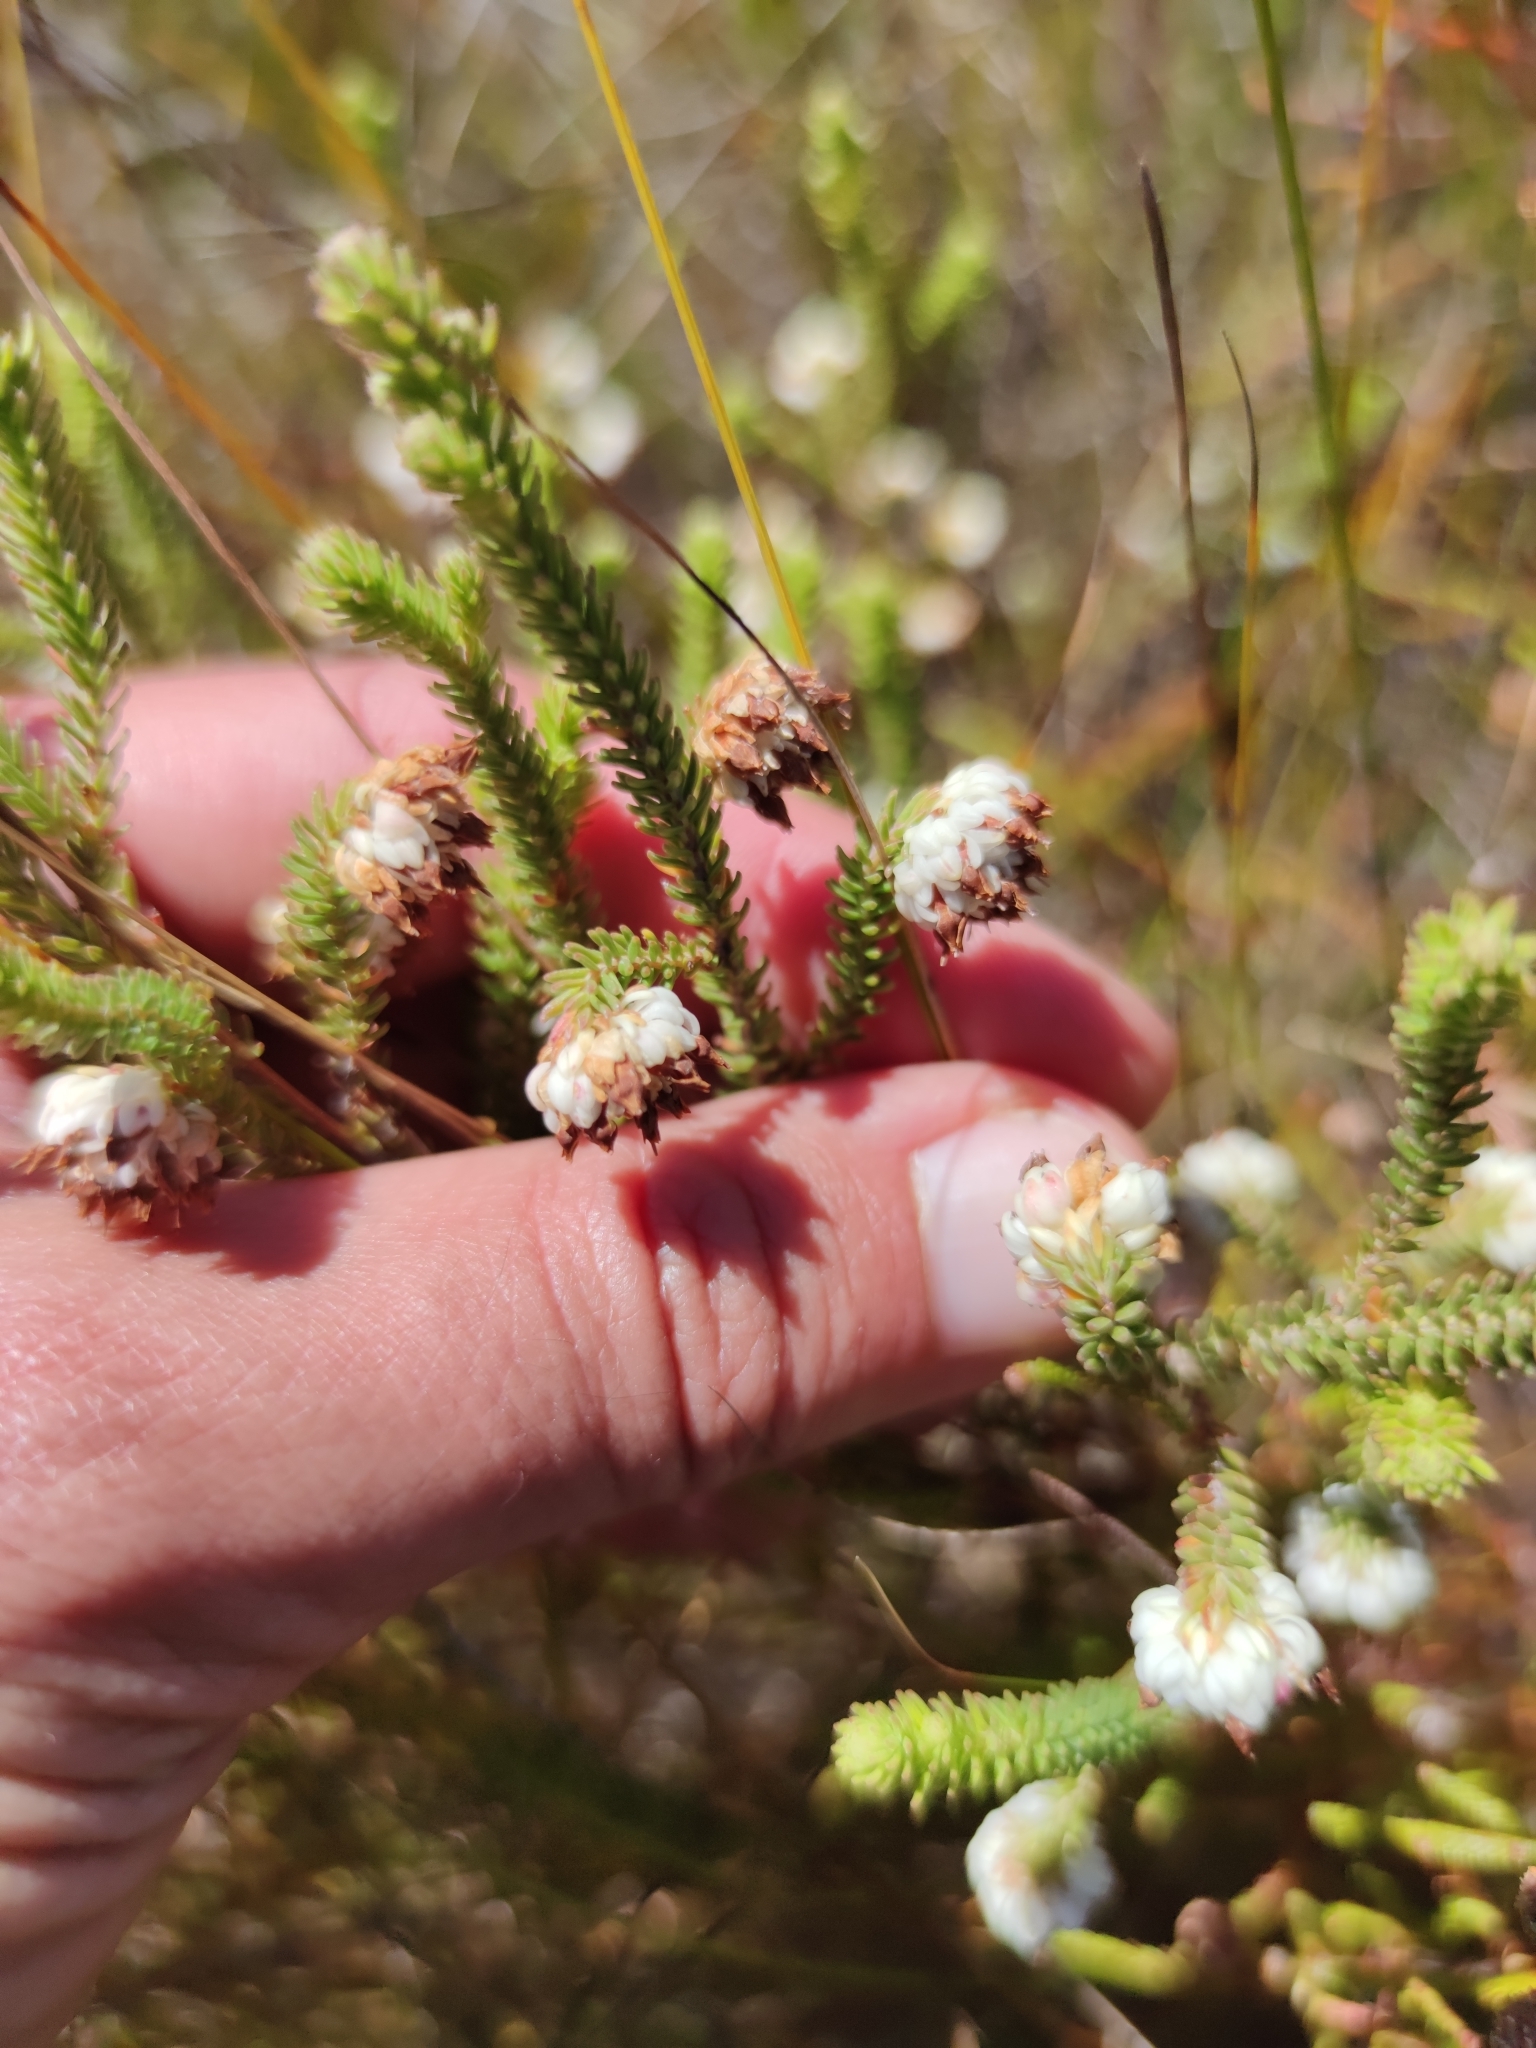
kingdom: Plantae
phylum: Tracheophyta
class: Magnoliopsida
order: Ericales
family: Ericaceae
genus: Erica
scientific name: Erica cumuliflora
